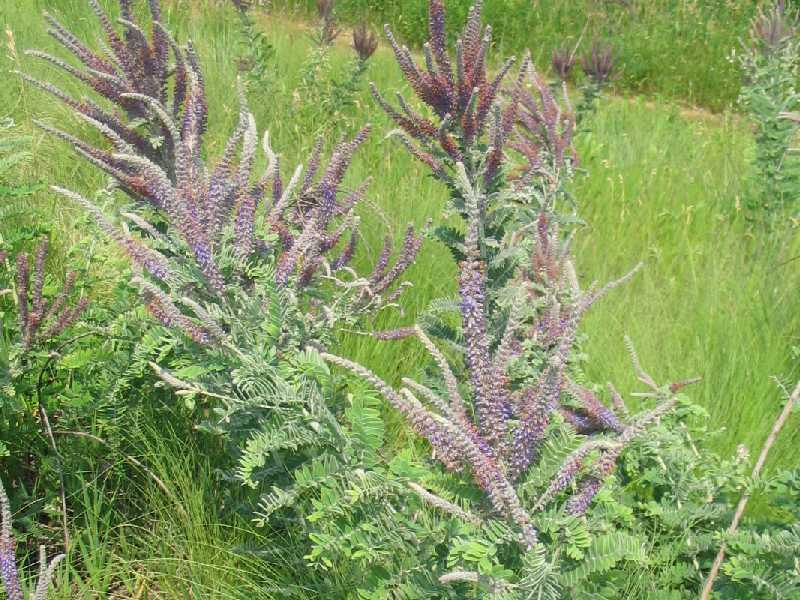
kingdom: Plantae
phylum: Tracheophyta
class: Magnoliopsida
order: Fabales
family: Fabaceae
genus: Amorpha
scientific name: Amorpha canescens
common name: Leadplant
